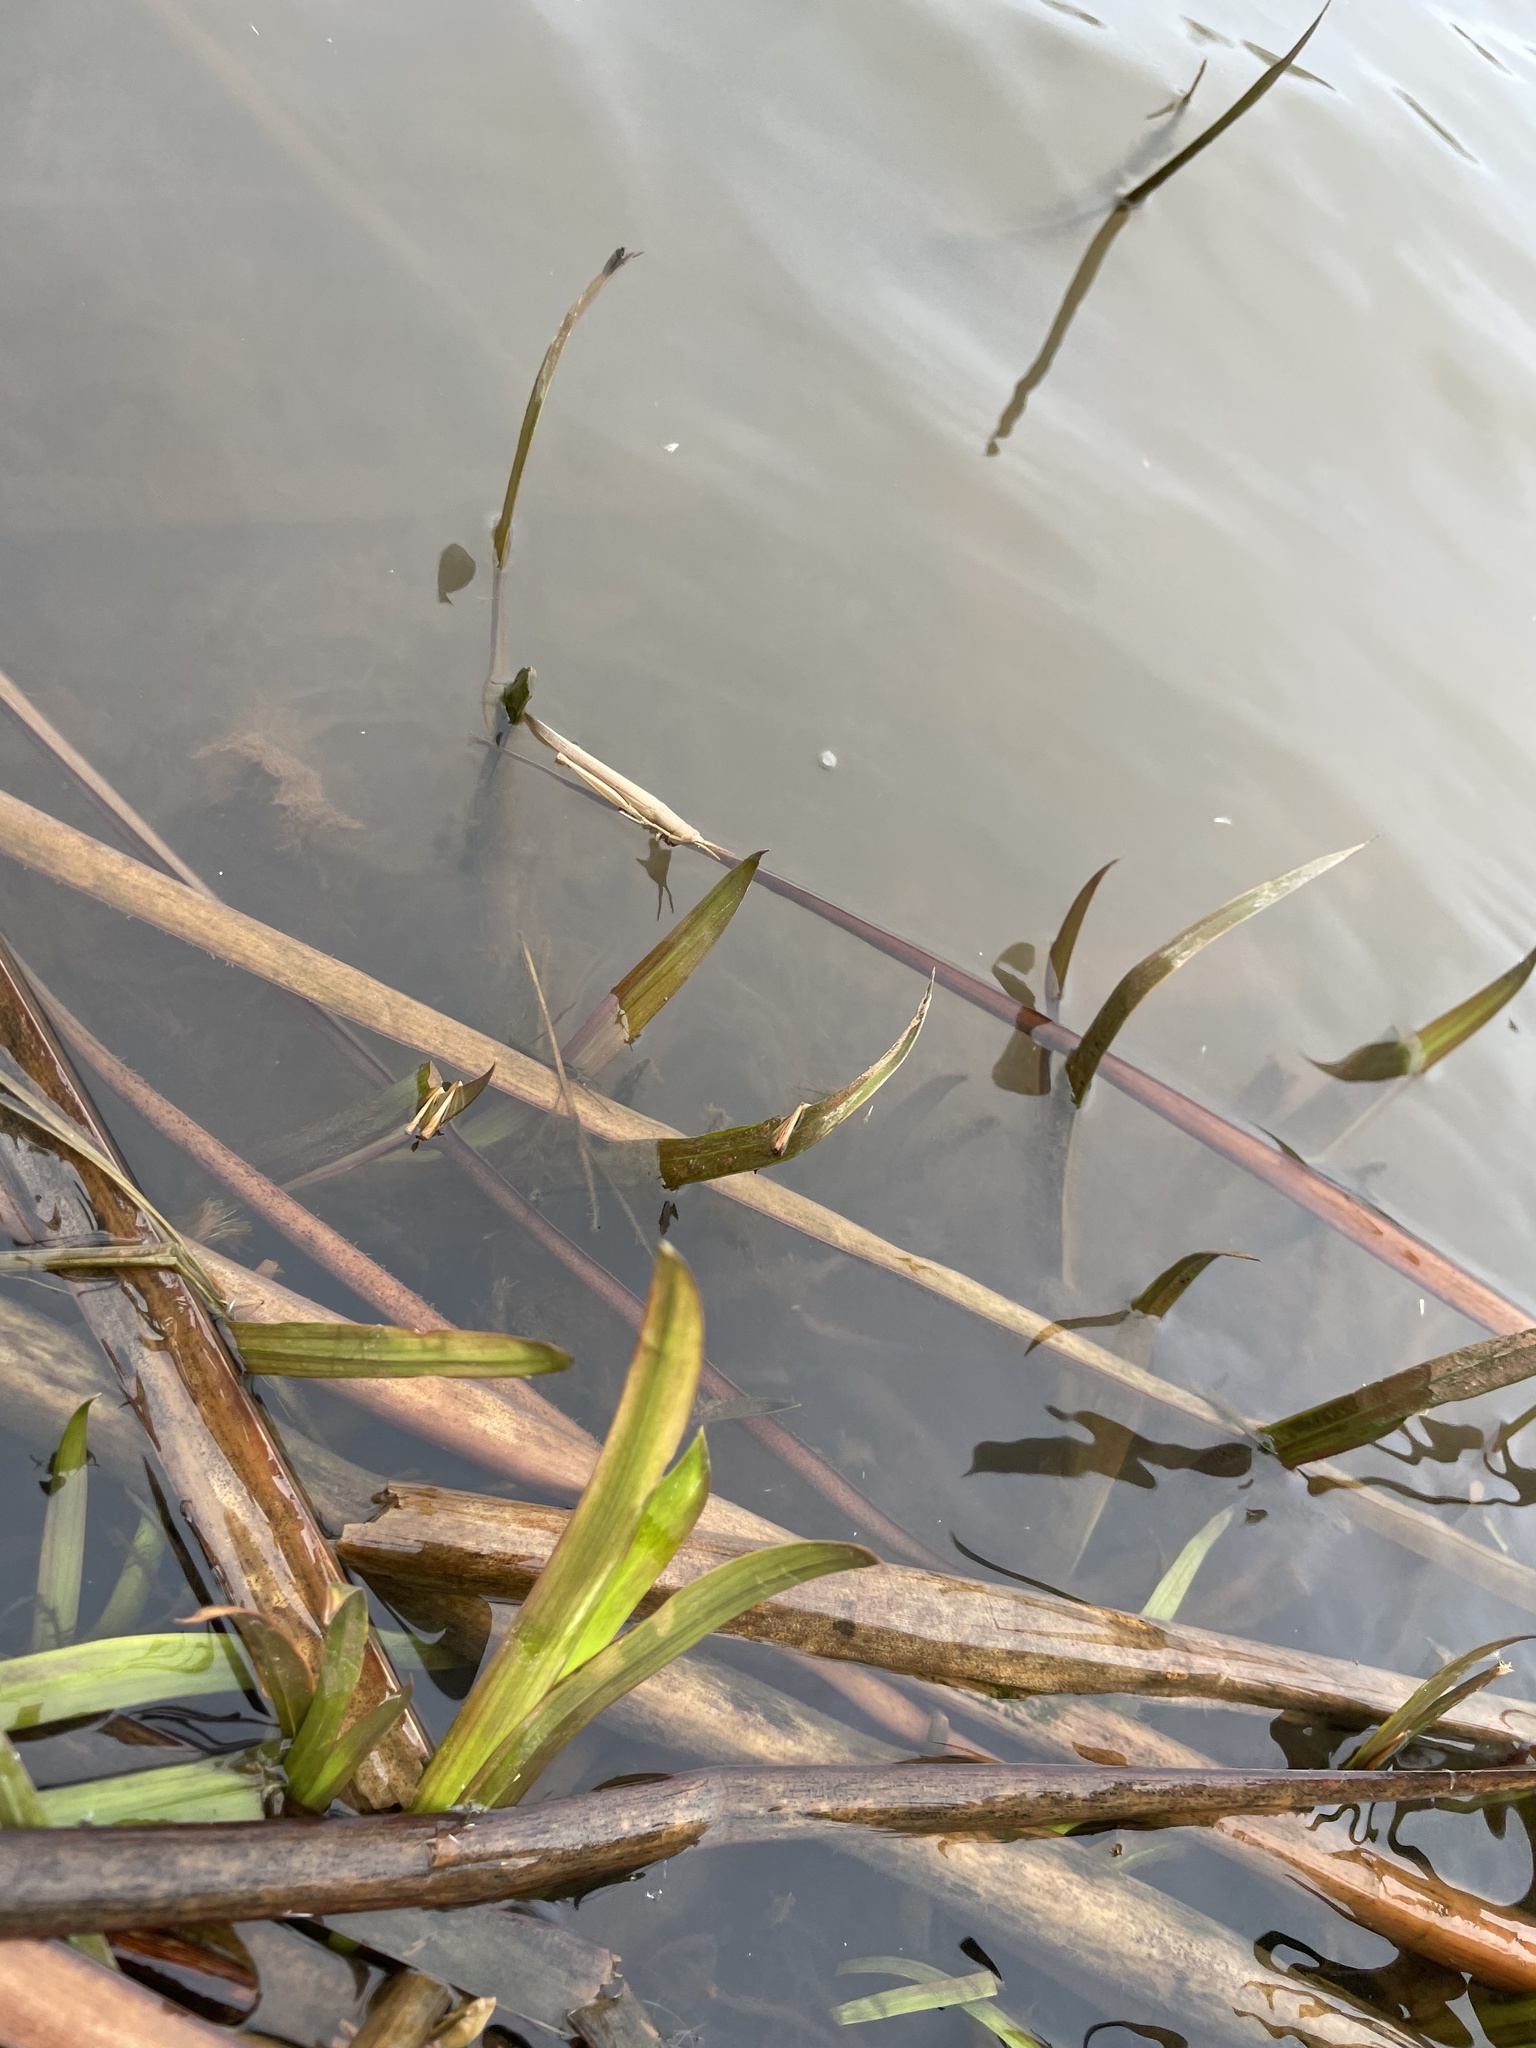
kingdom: Animalia
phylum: Arthropoda
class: Insecta
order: Orthoptera
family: Acrididae
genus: Leptysma
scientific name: Leptysma marginicollis
